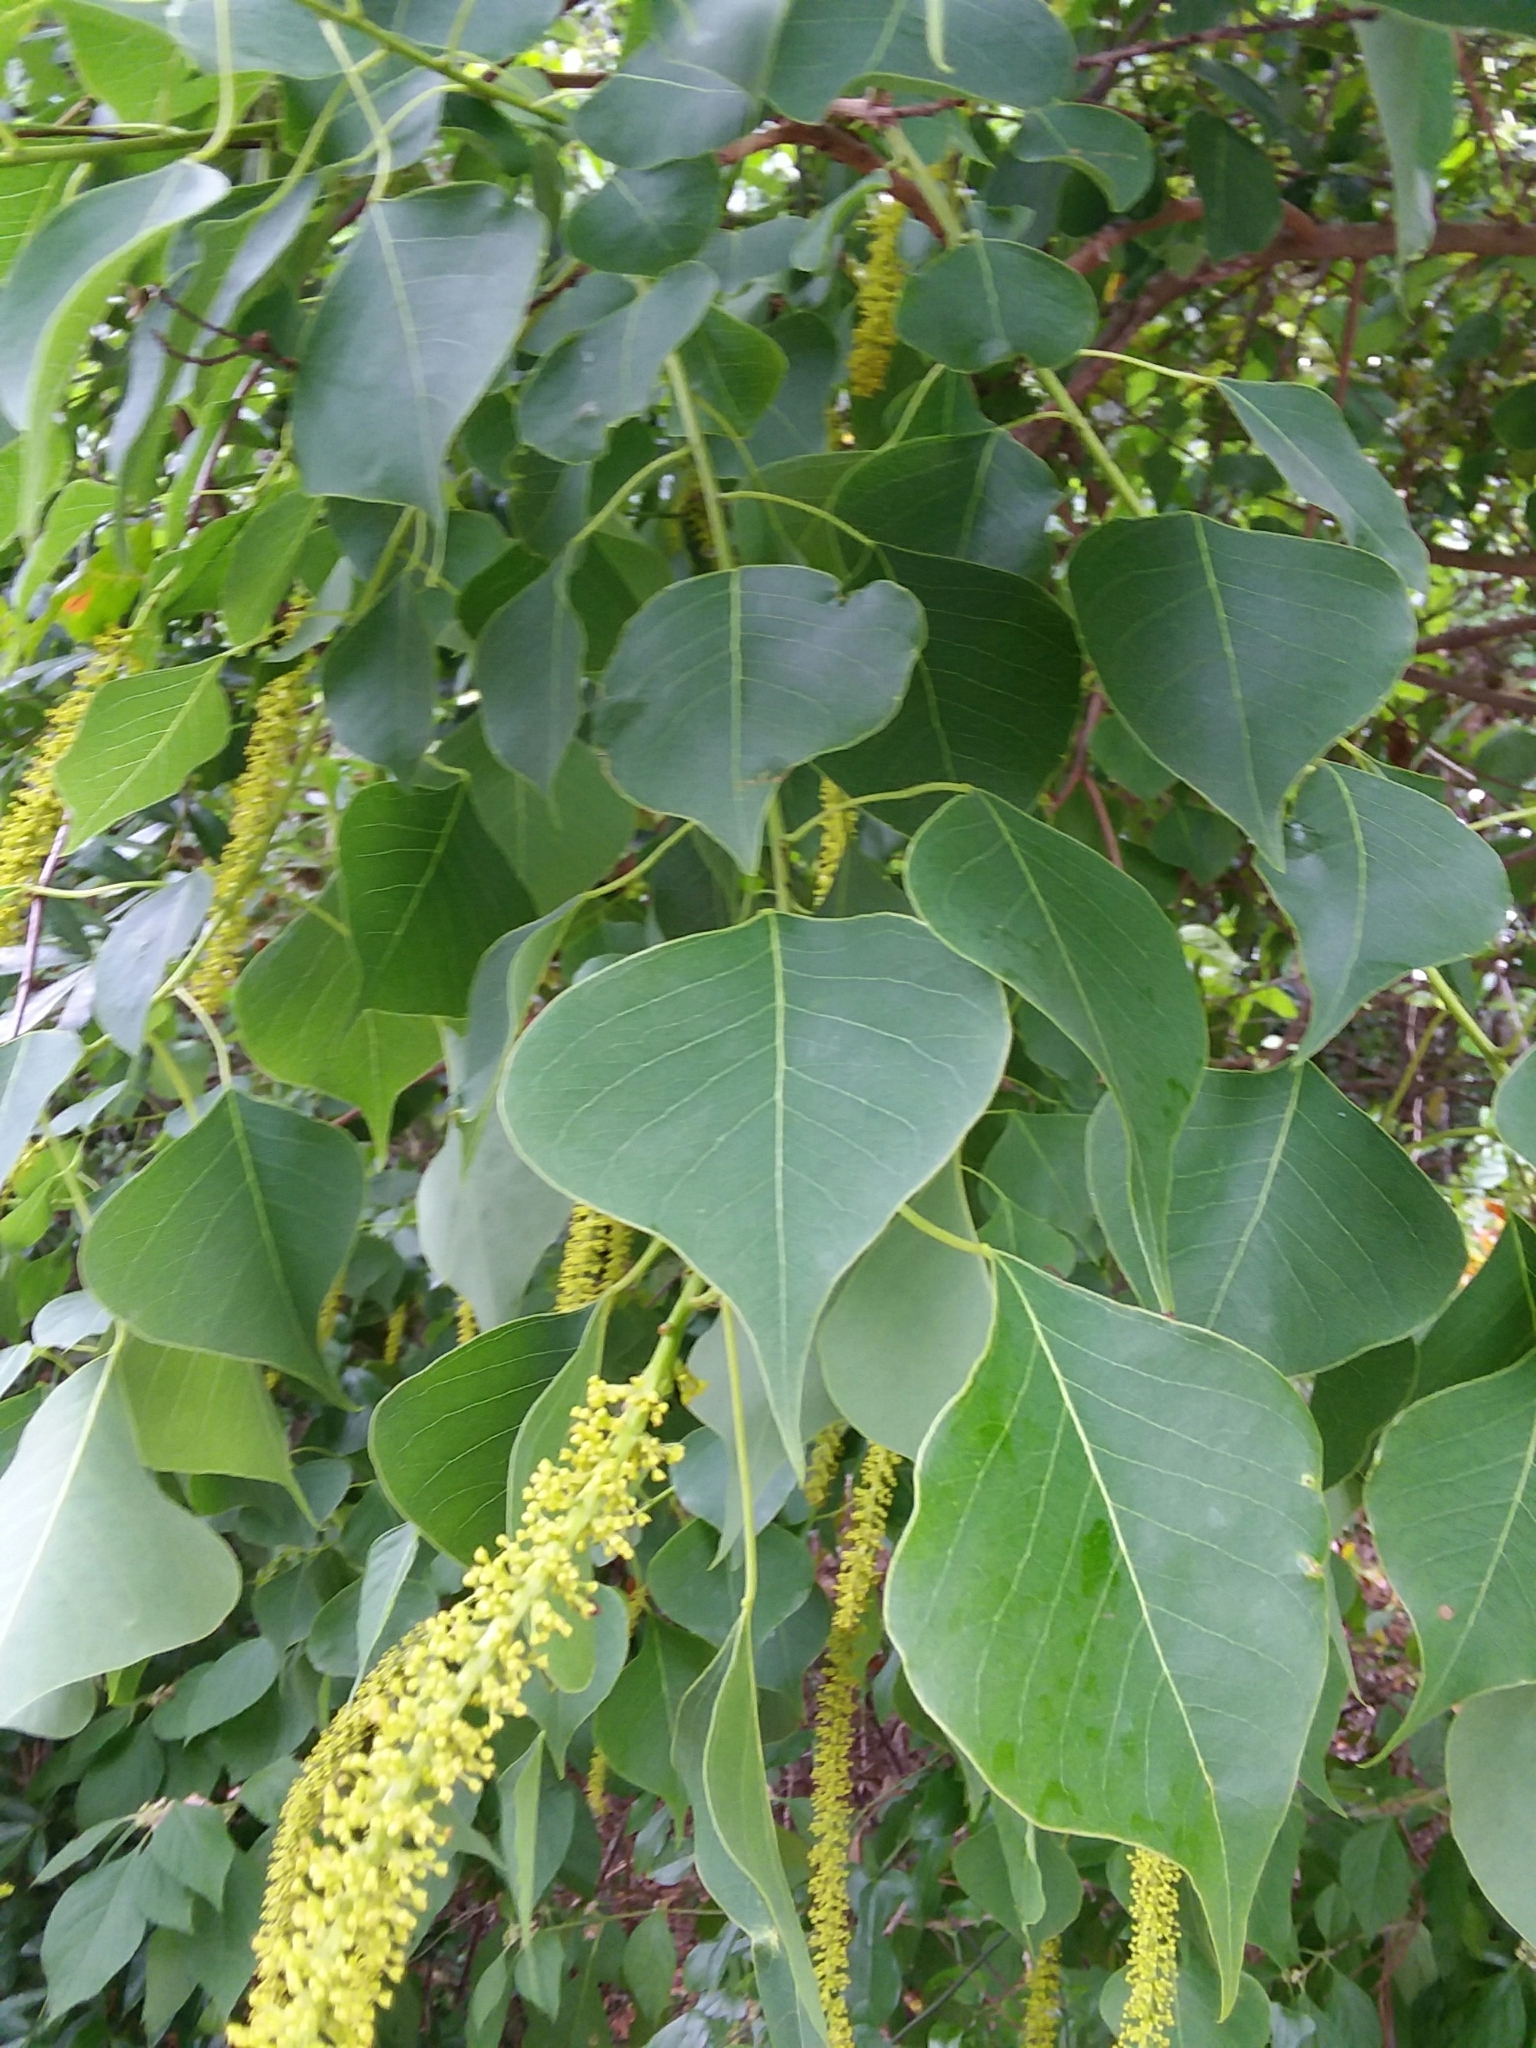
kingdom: Plantae
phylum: Tracheophyta
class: Magnoliopsida
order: Malpighiales
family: Euphorbiaceae
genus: Triadica
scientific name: Triadica sebifera
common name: Chinese tallow
